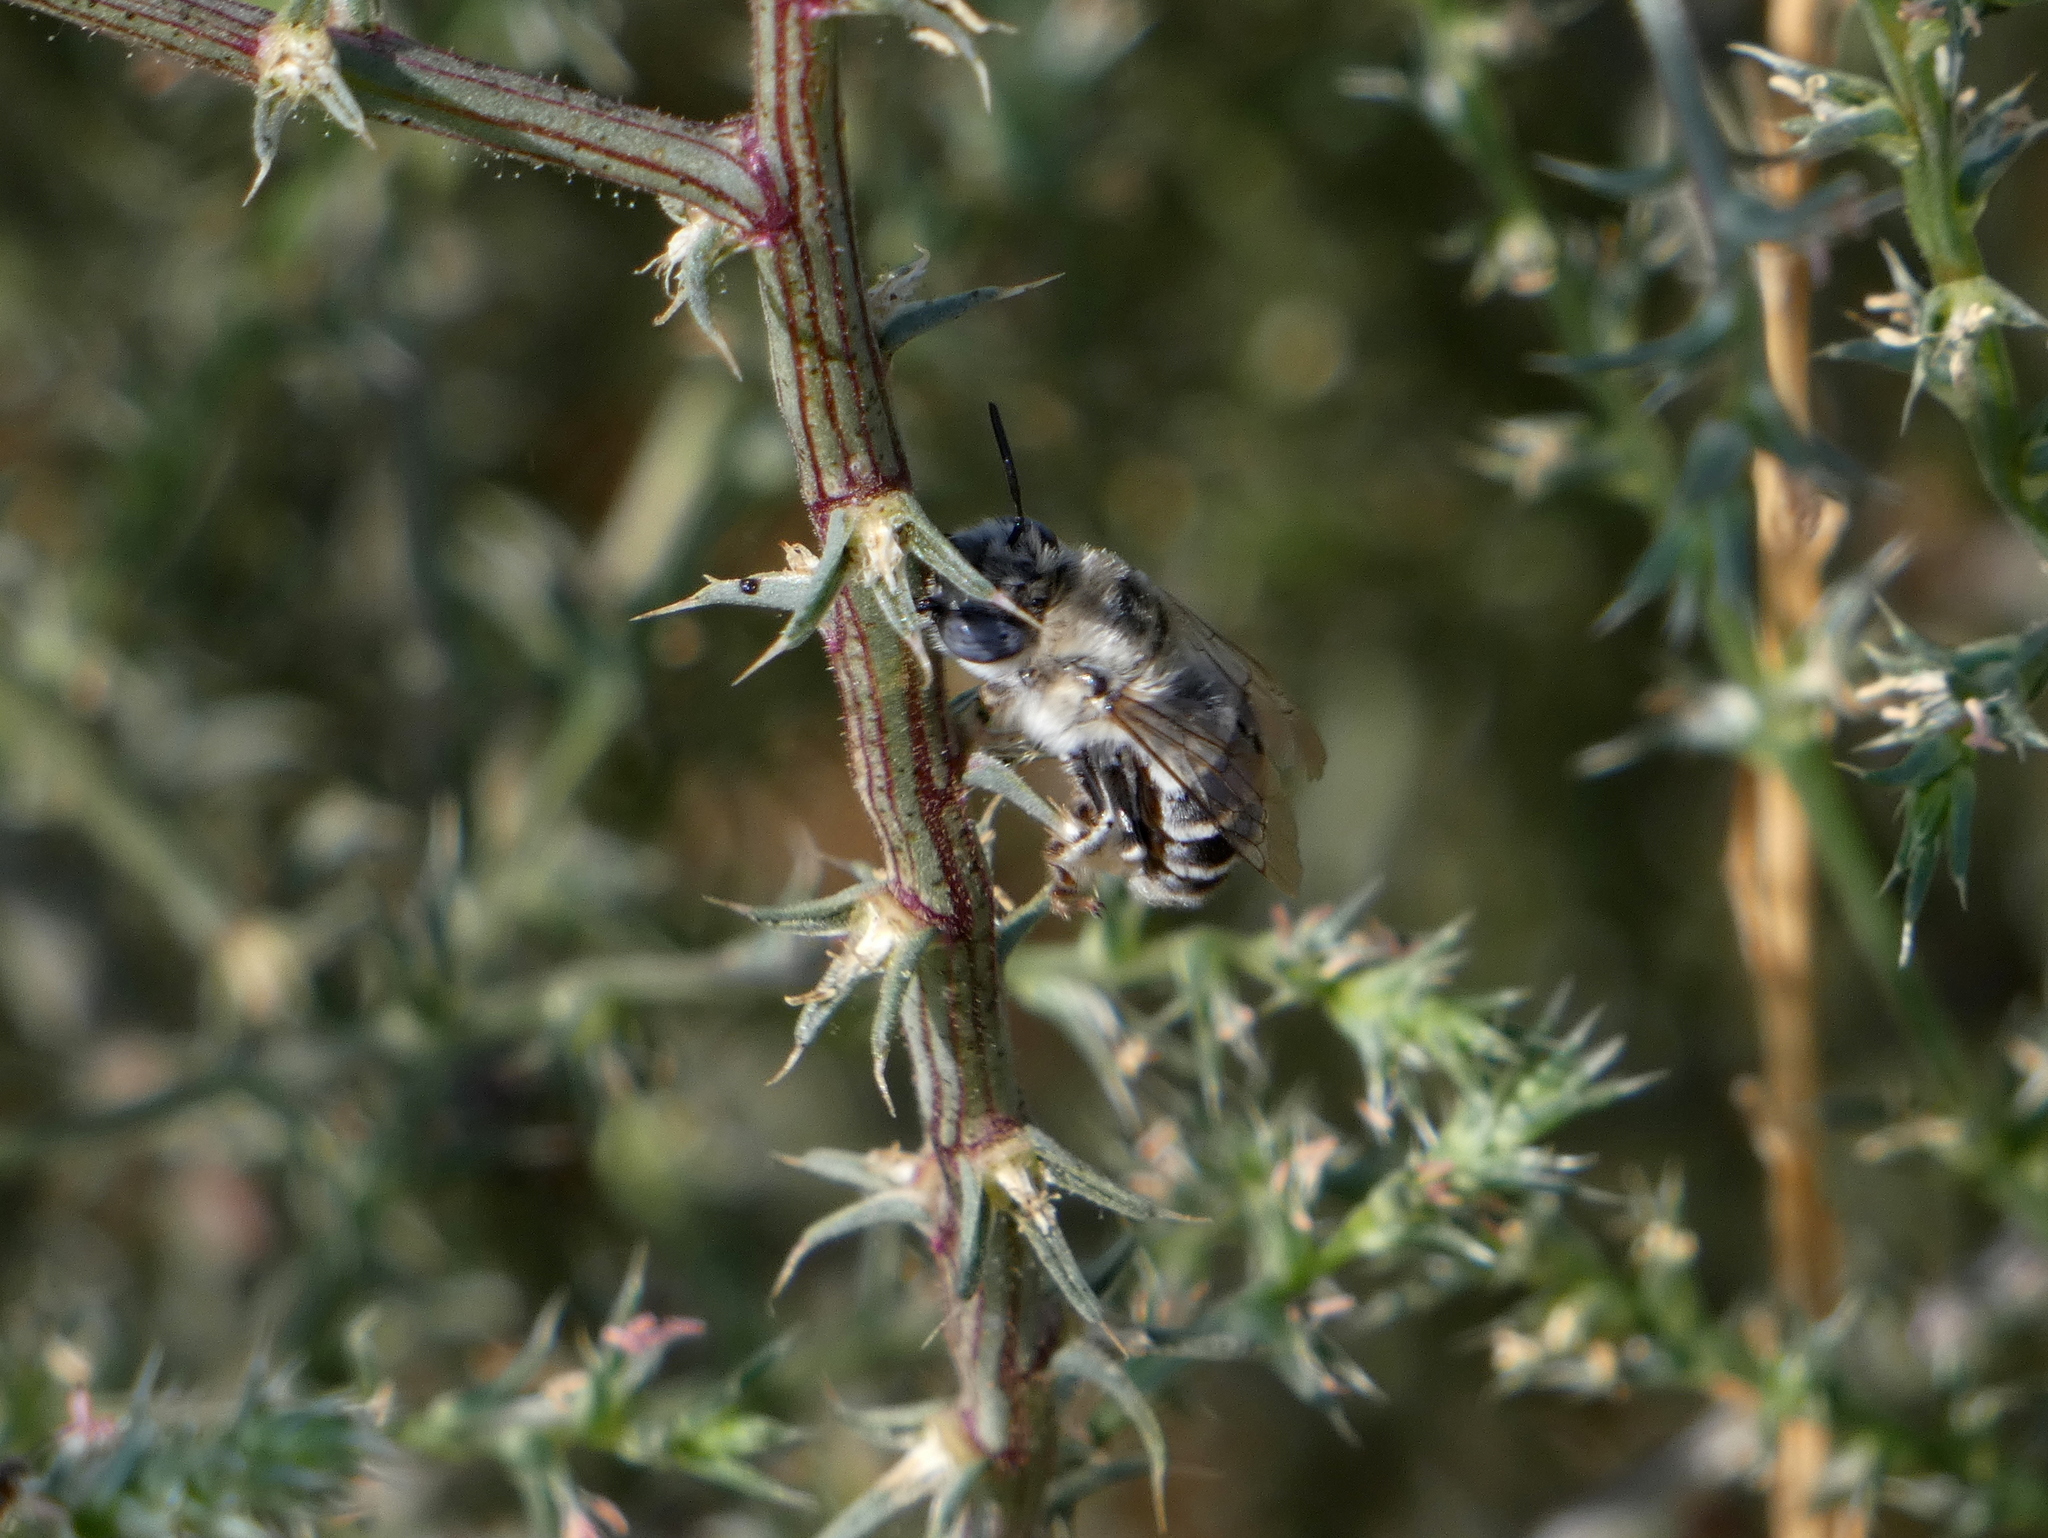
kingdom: Animalia
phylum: Arthropoda
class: Insecta
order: Hymenoptera
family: Apidae
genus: Anthophora
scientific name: Anthophora urbana
